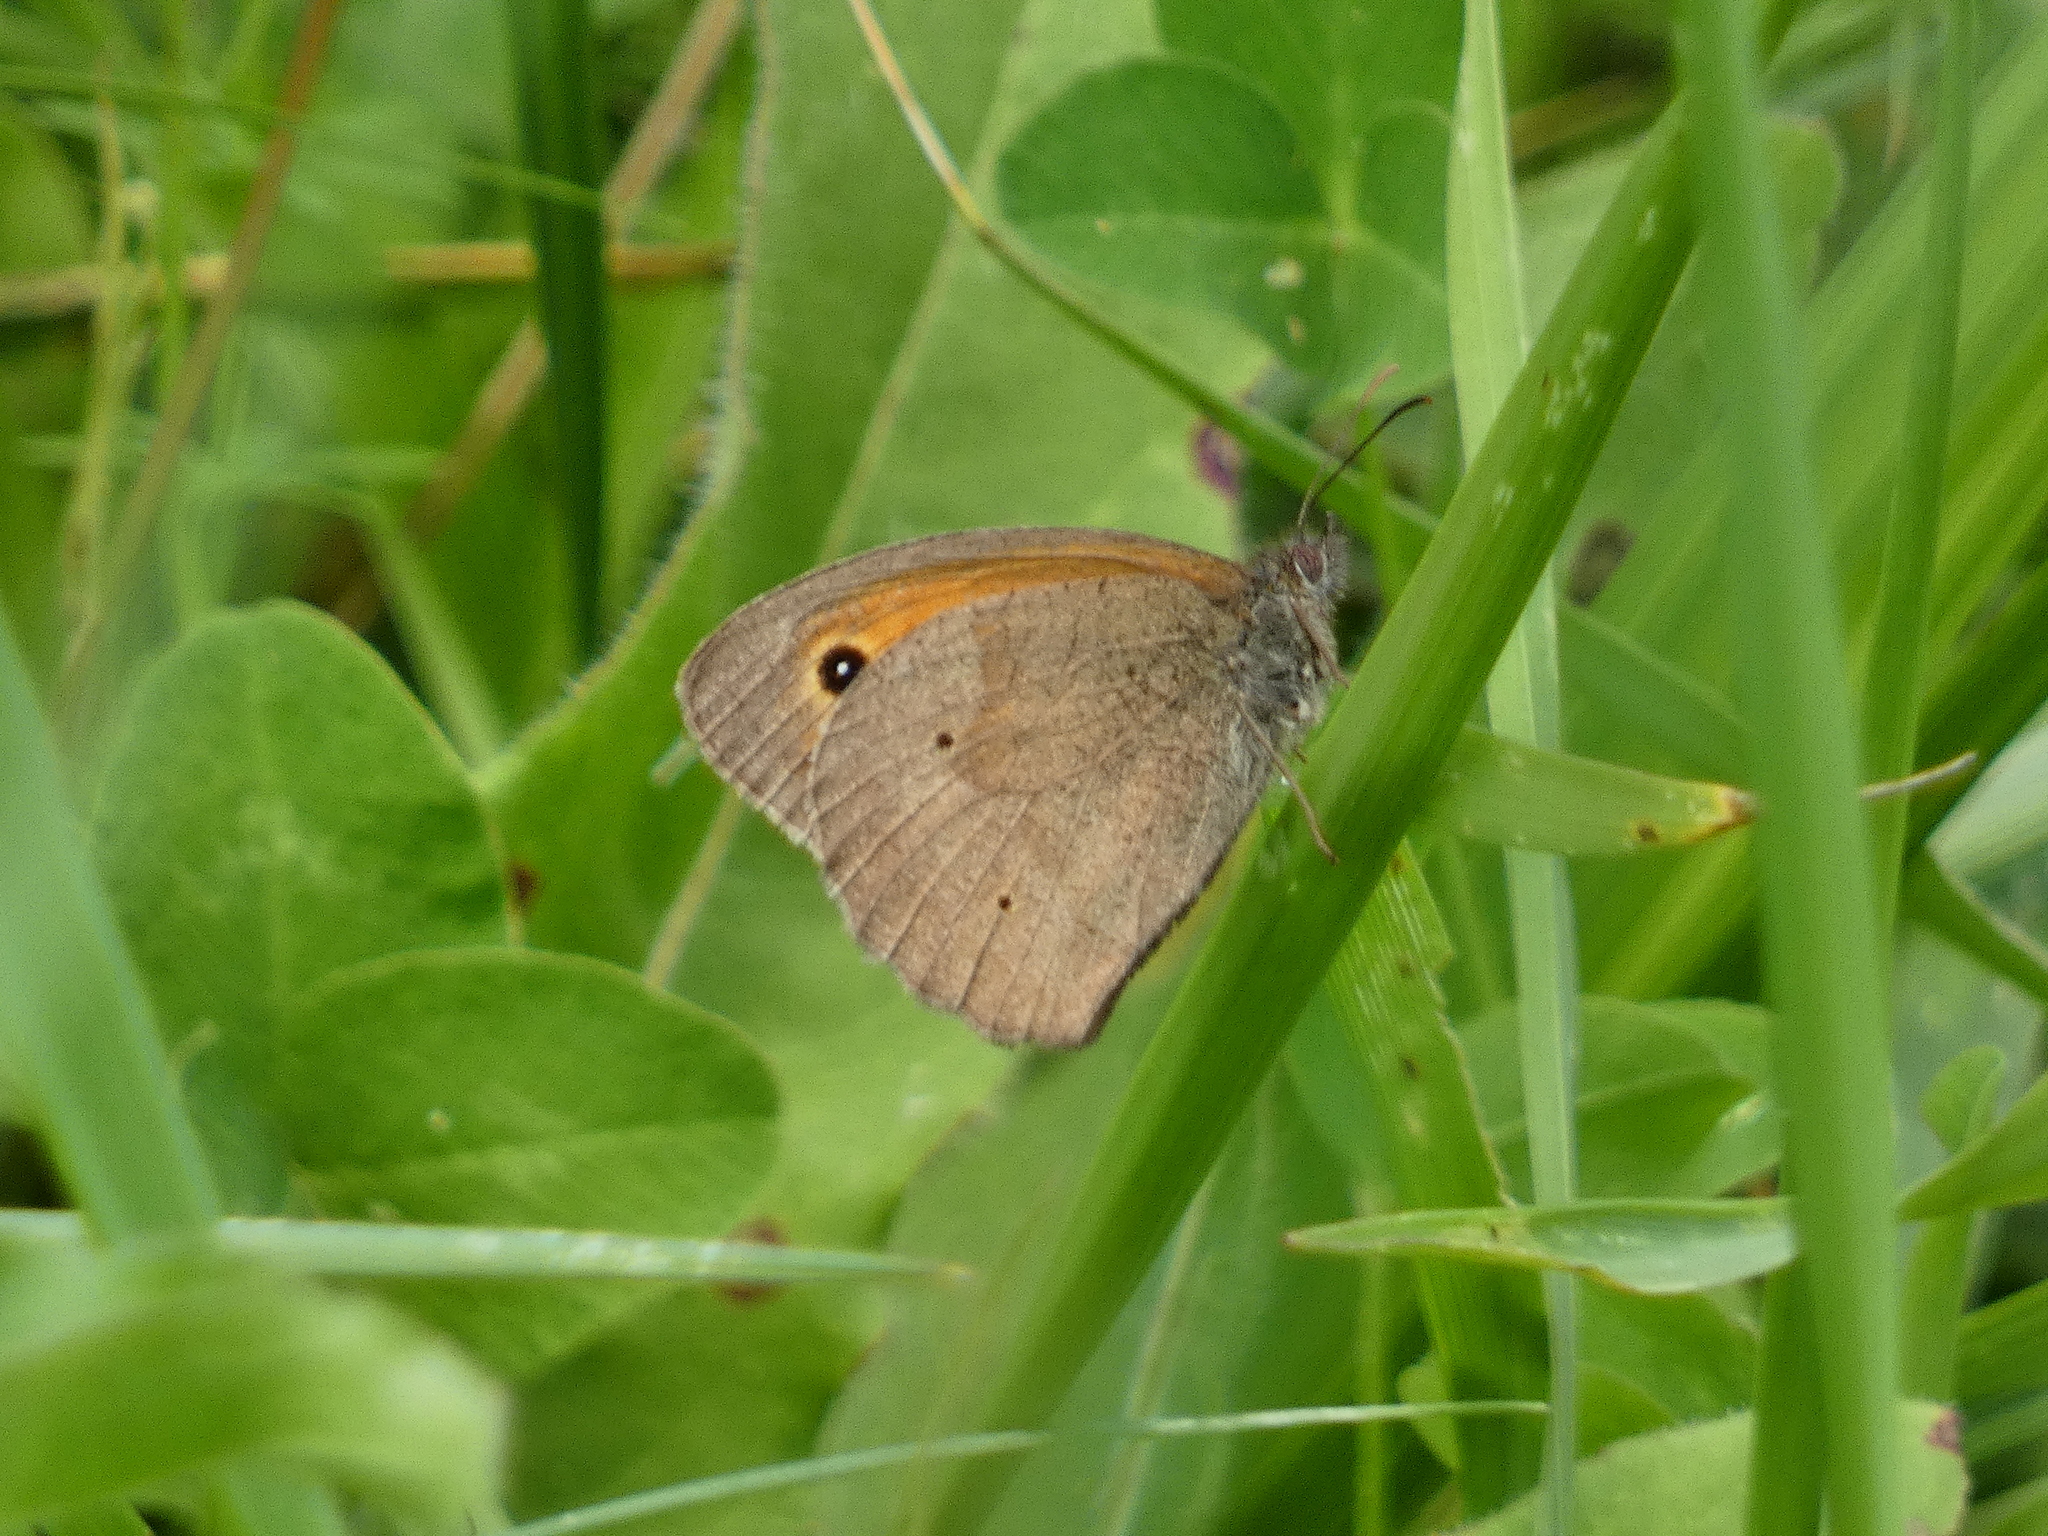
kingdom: Animalia
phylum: Arthropoda
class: Insecta
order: Lepidoptera
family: Nymphalidae
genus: Maniola
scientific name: Maniola jurtina
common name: Meadow brown
